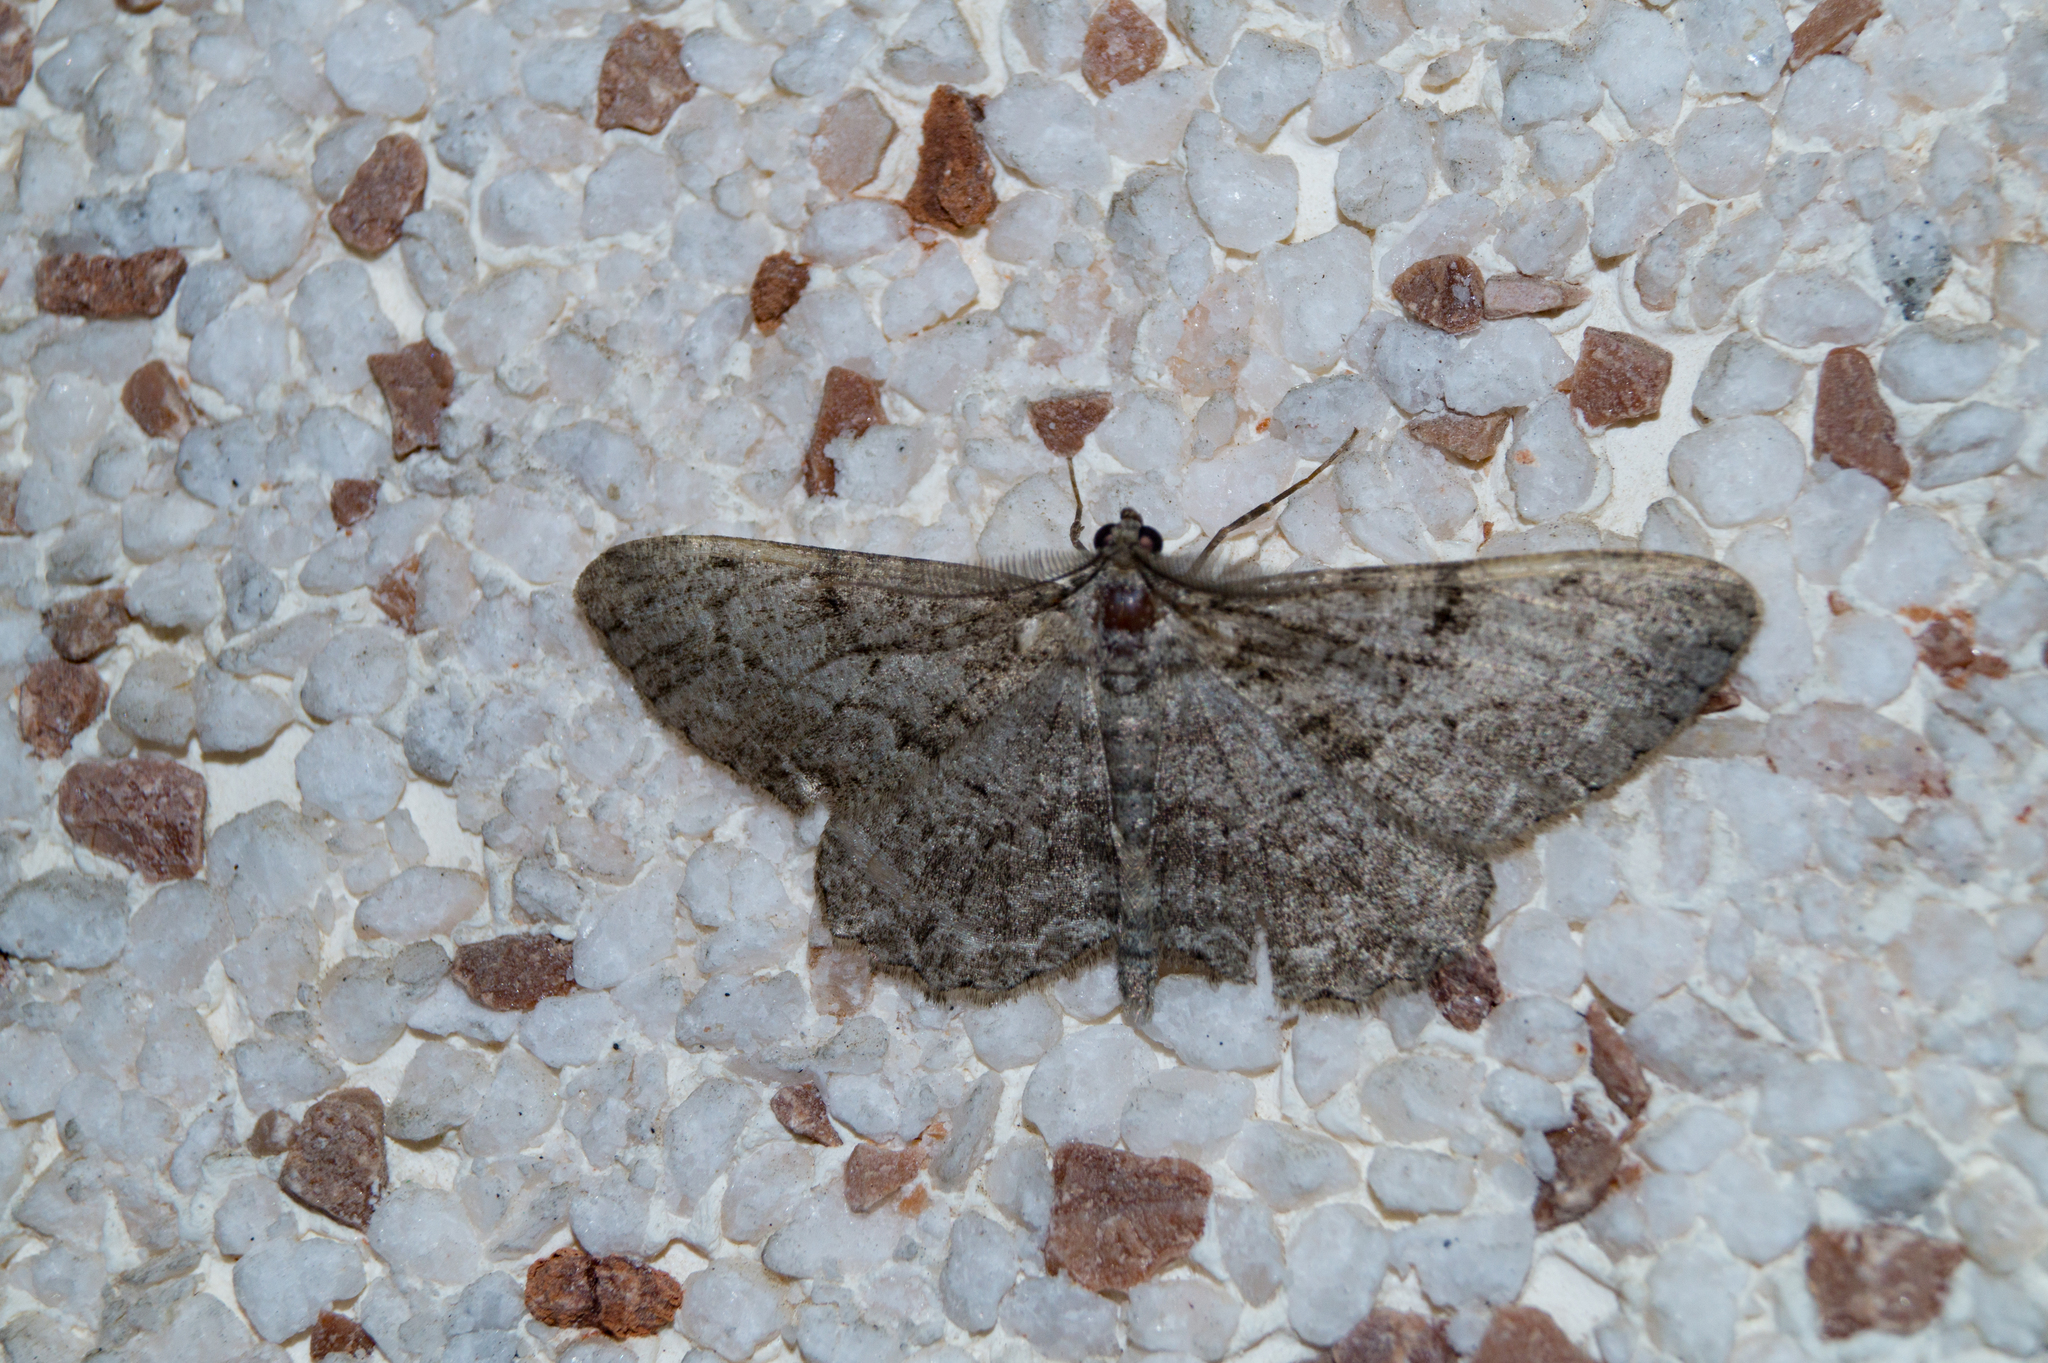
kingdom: Animalia
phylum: Arthropoda
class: Insecta
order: Lepidoptera
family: Geometridae
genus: Peribatodes
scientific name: Peribatodes rhomboidaria
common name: Willow beauty
